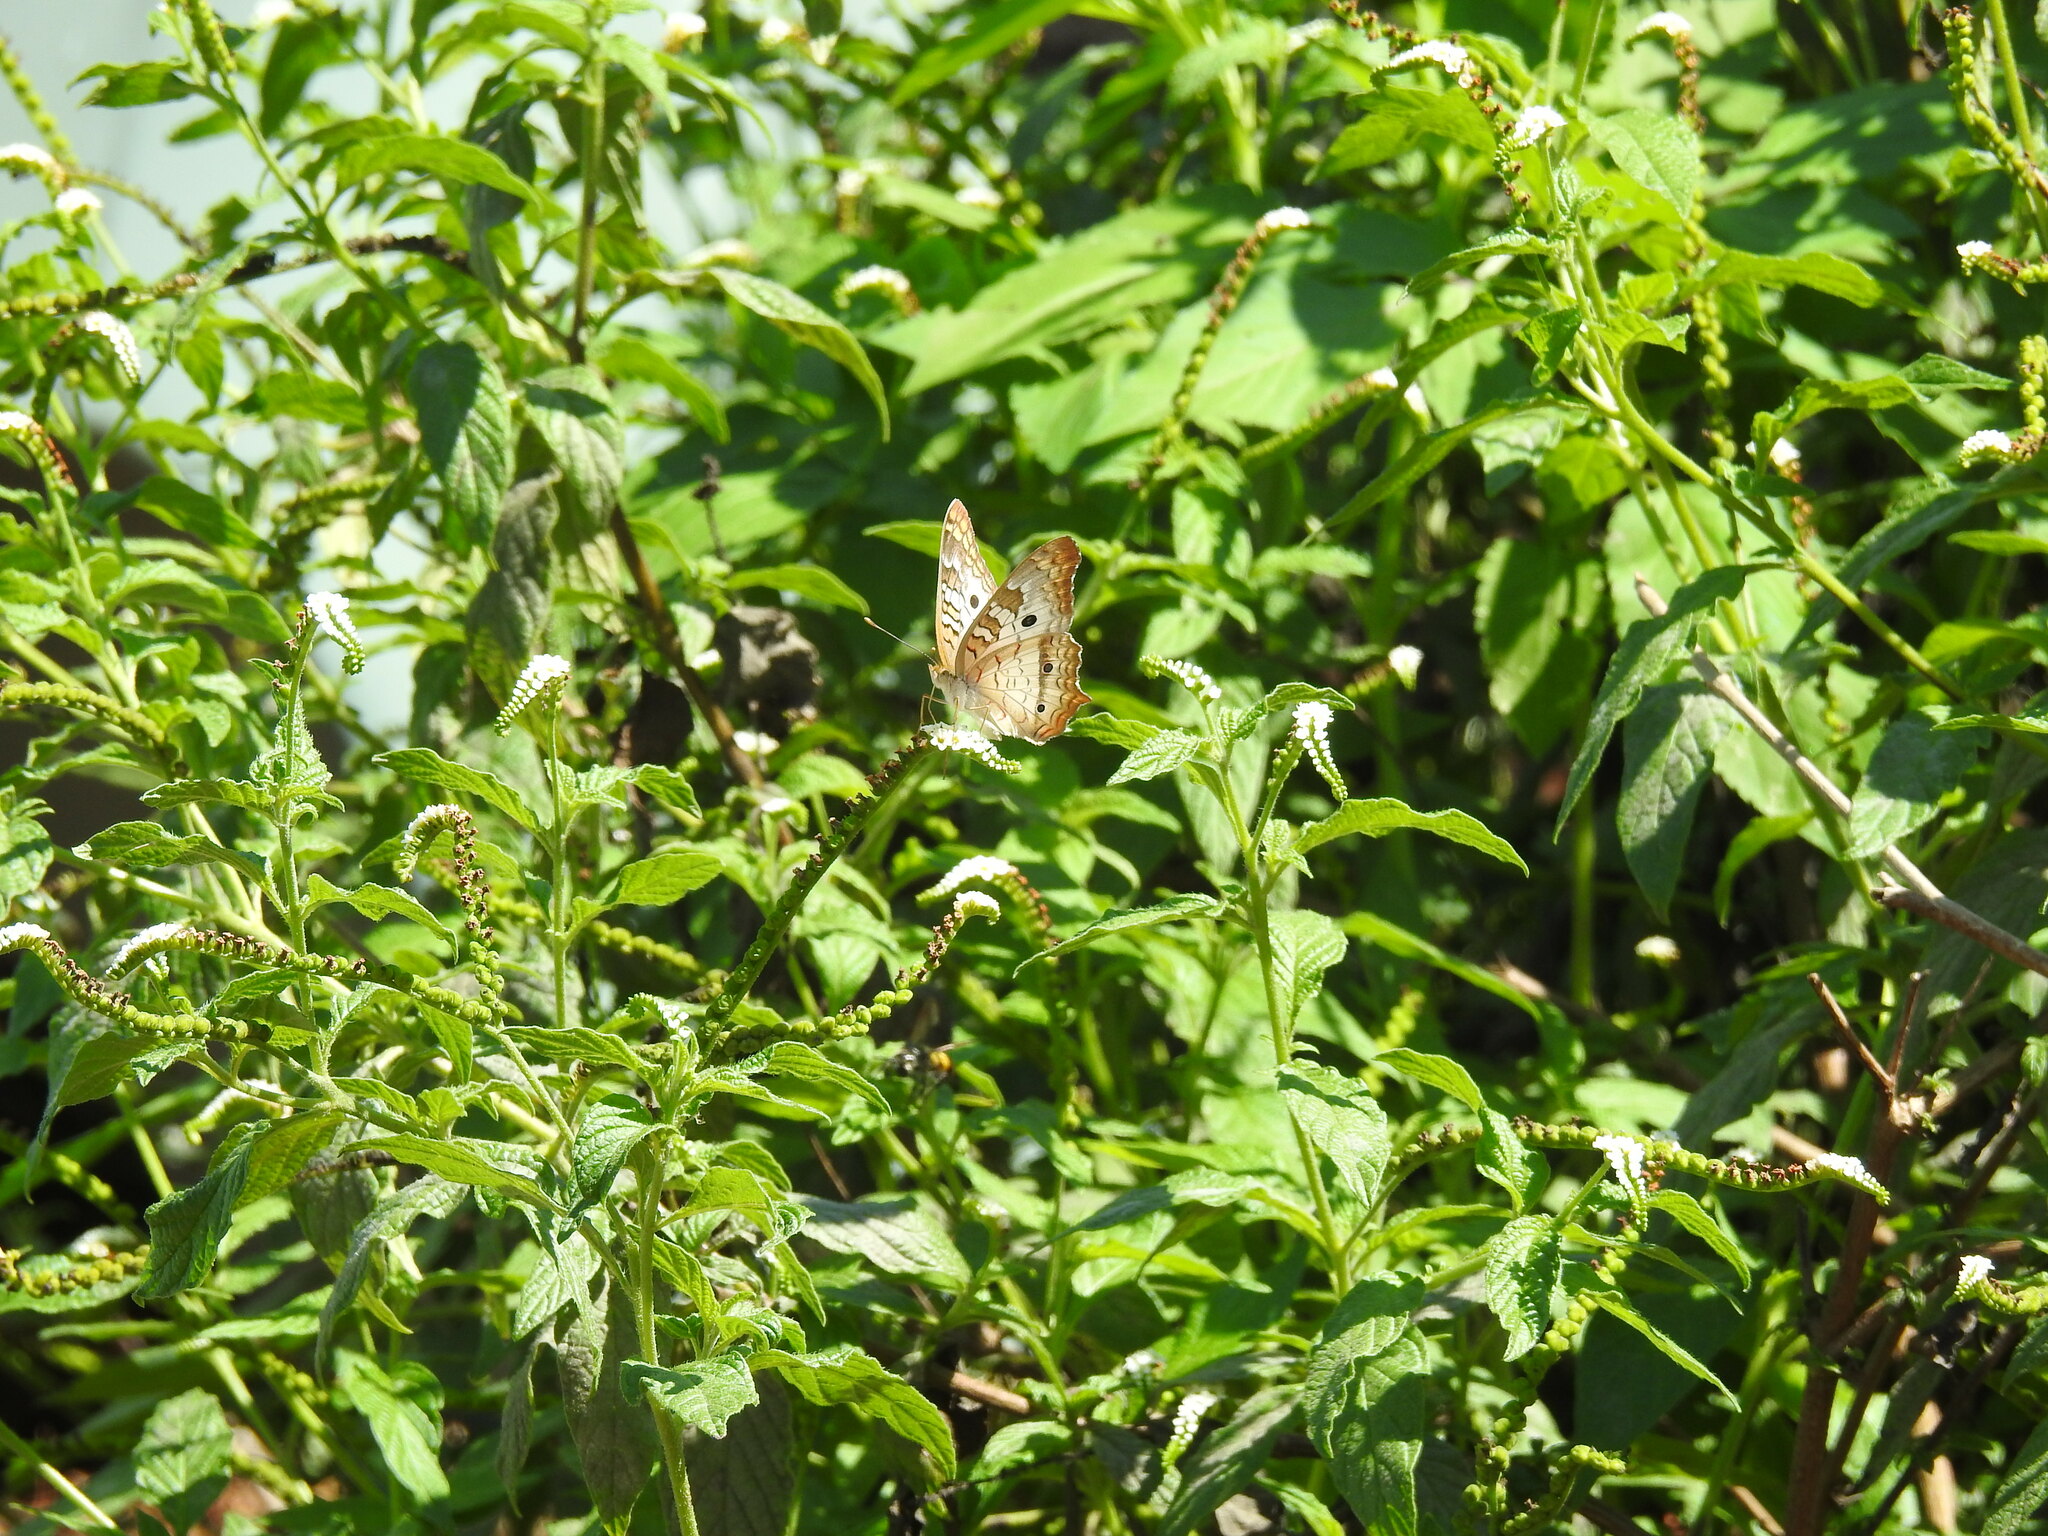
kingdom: Animalia
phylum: Arthropoda
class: Insecta
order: Lepidoptera
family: Nymphalidae
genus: Anartia
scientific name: Anartia jatrophae
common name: White peacock
